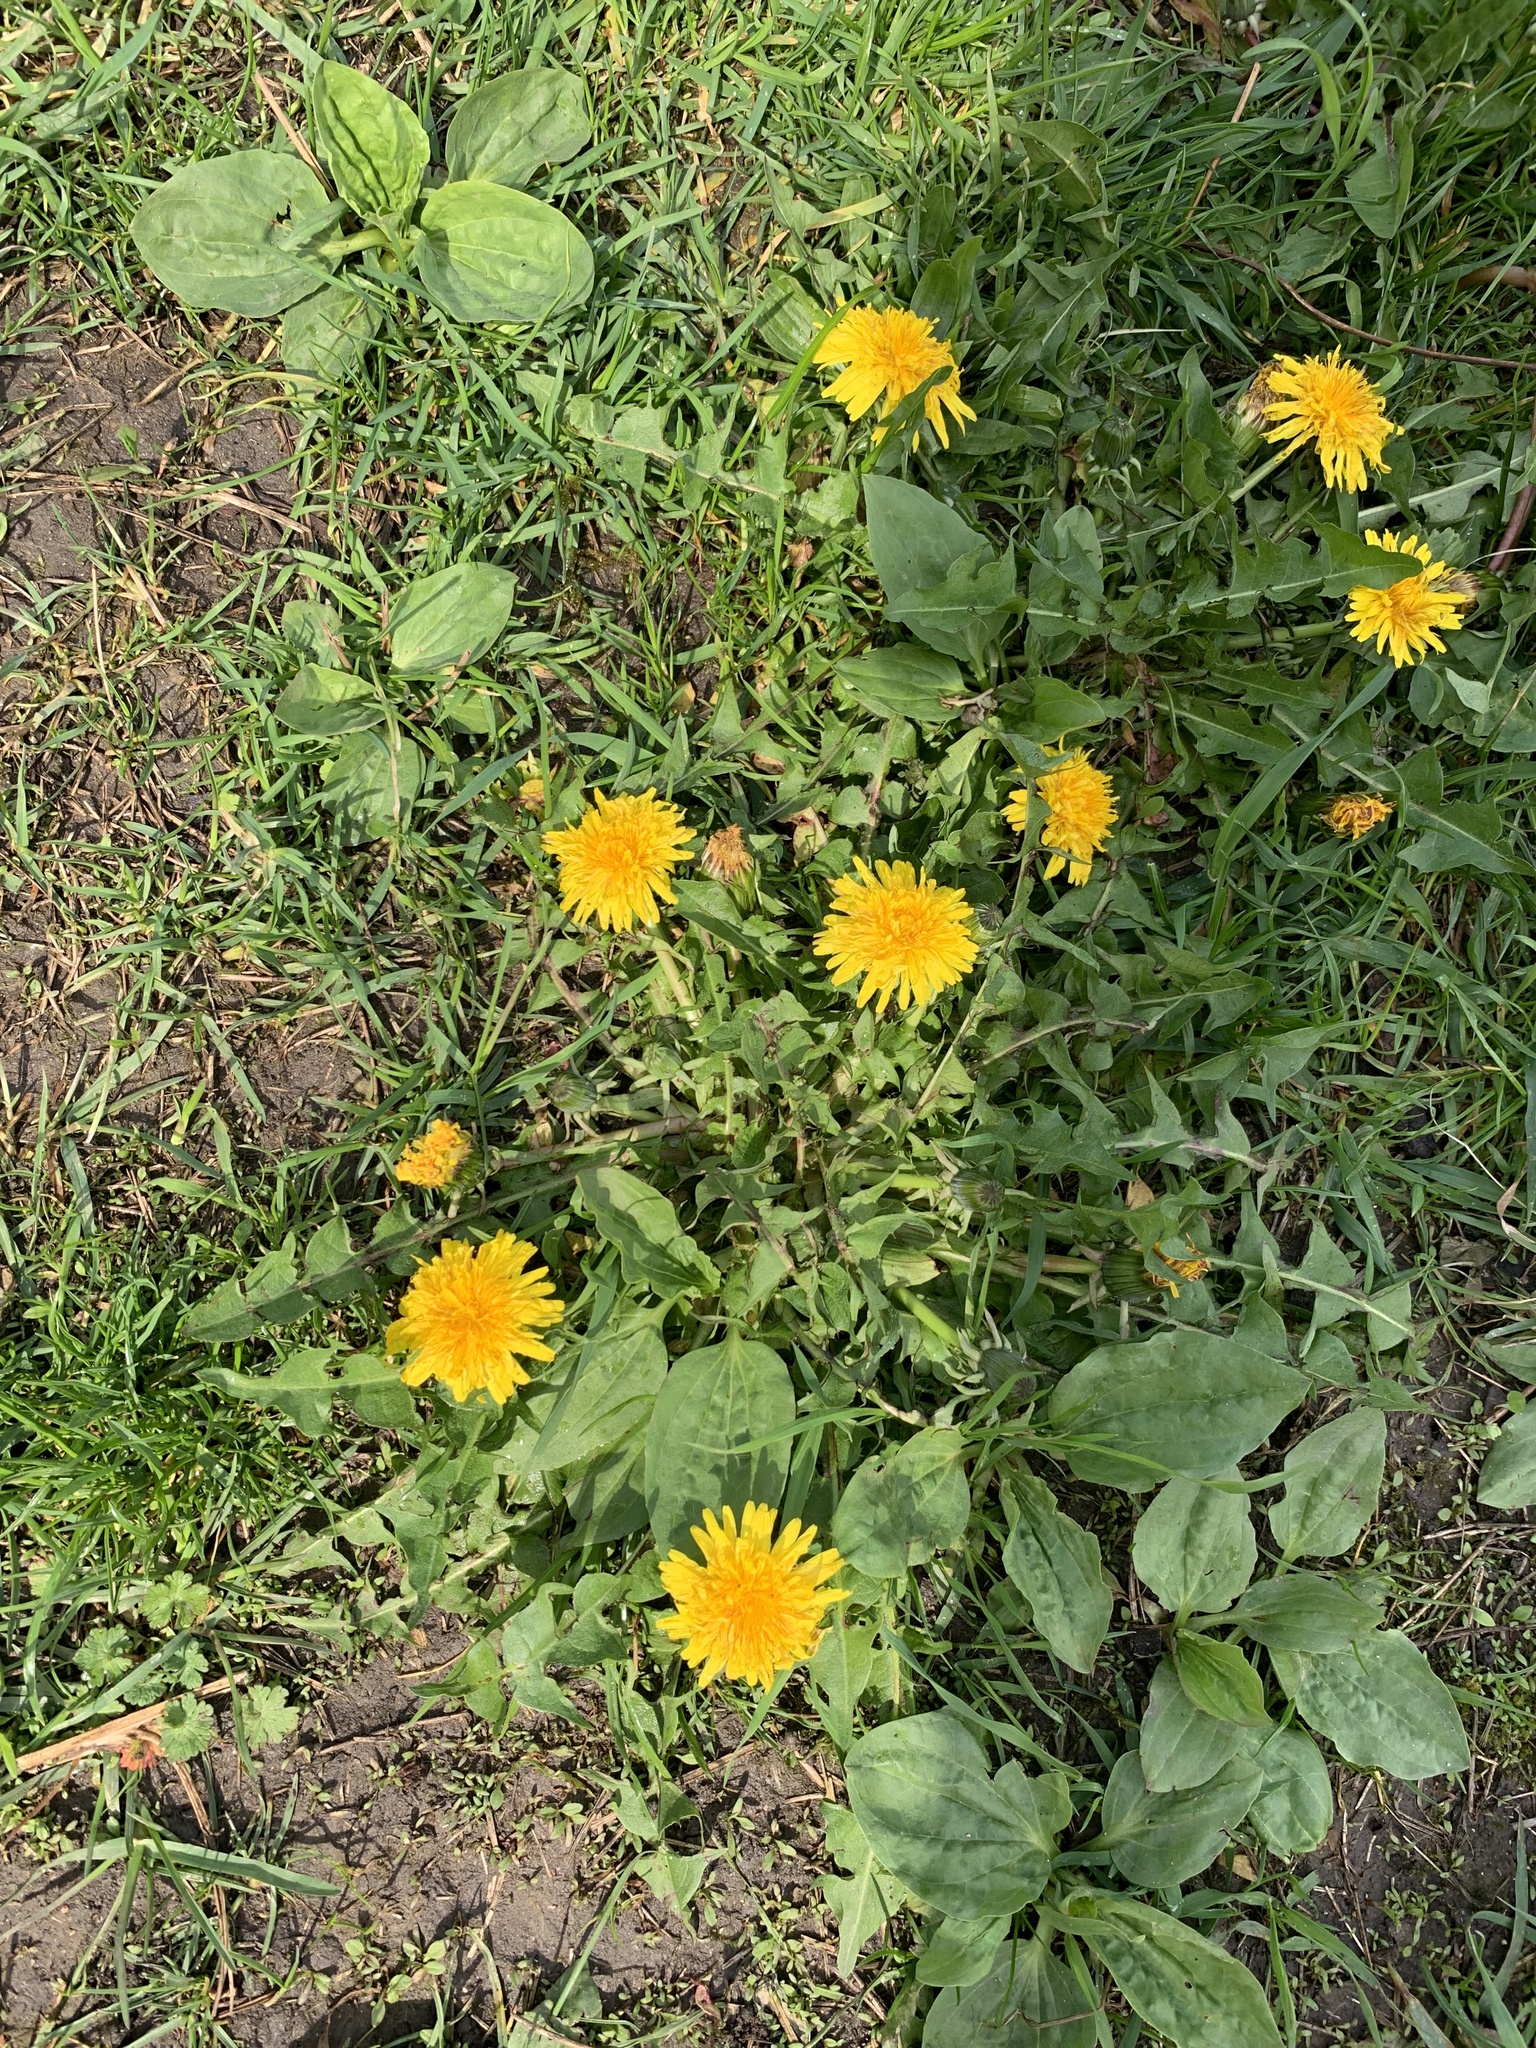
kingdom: Plantae
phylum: Tracheophyta
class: Magnoliopsida
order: Asterales
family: Asteraceae
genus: Taraxacum
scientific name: Taraxacum officinale
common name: Common dandelion
